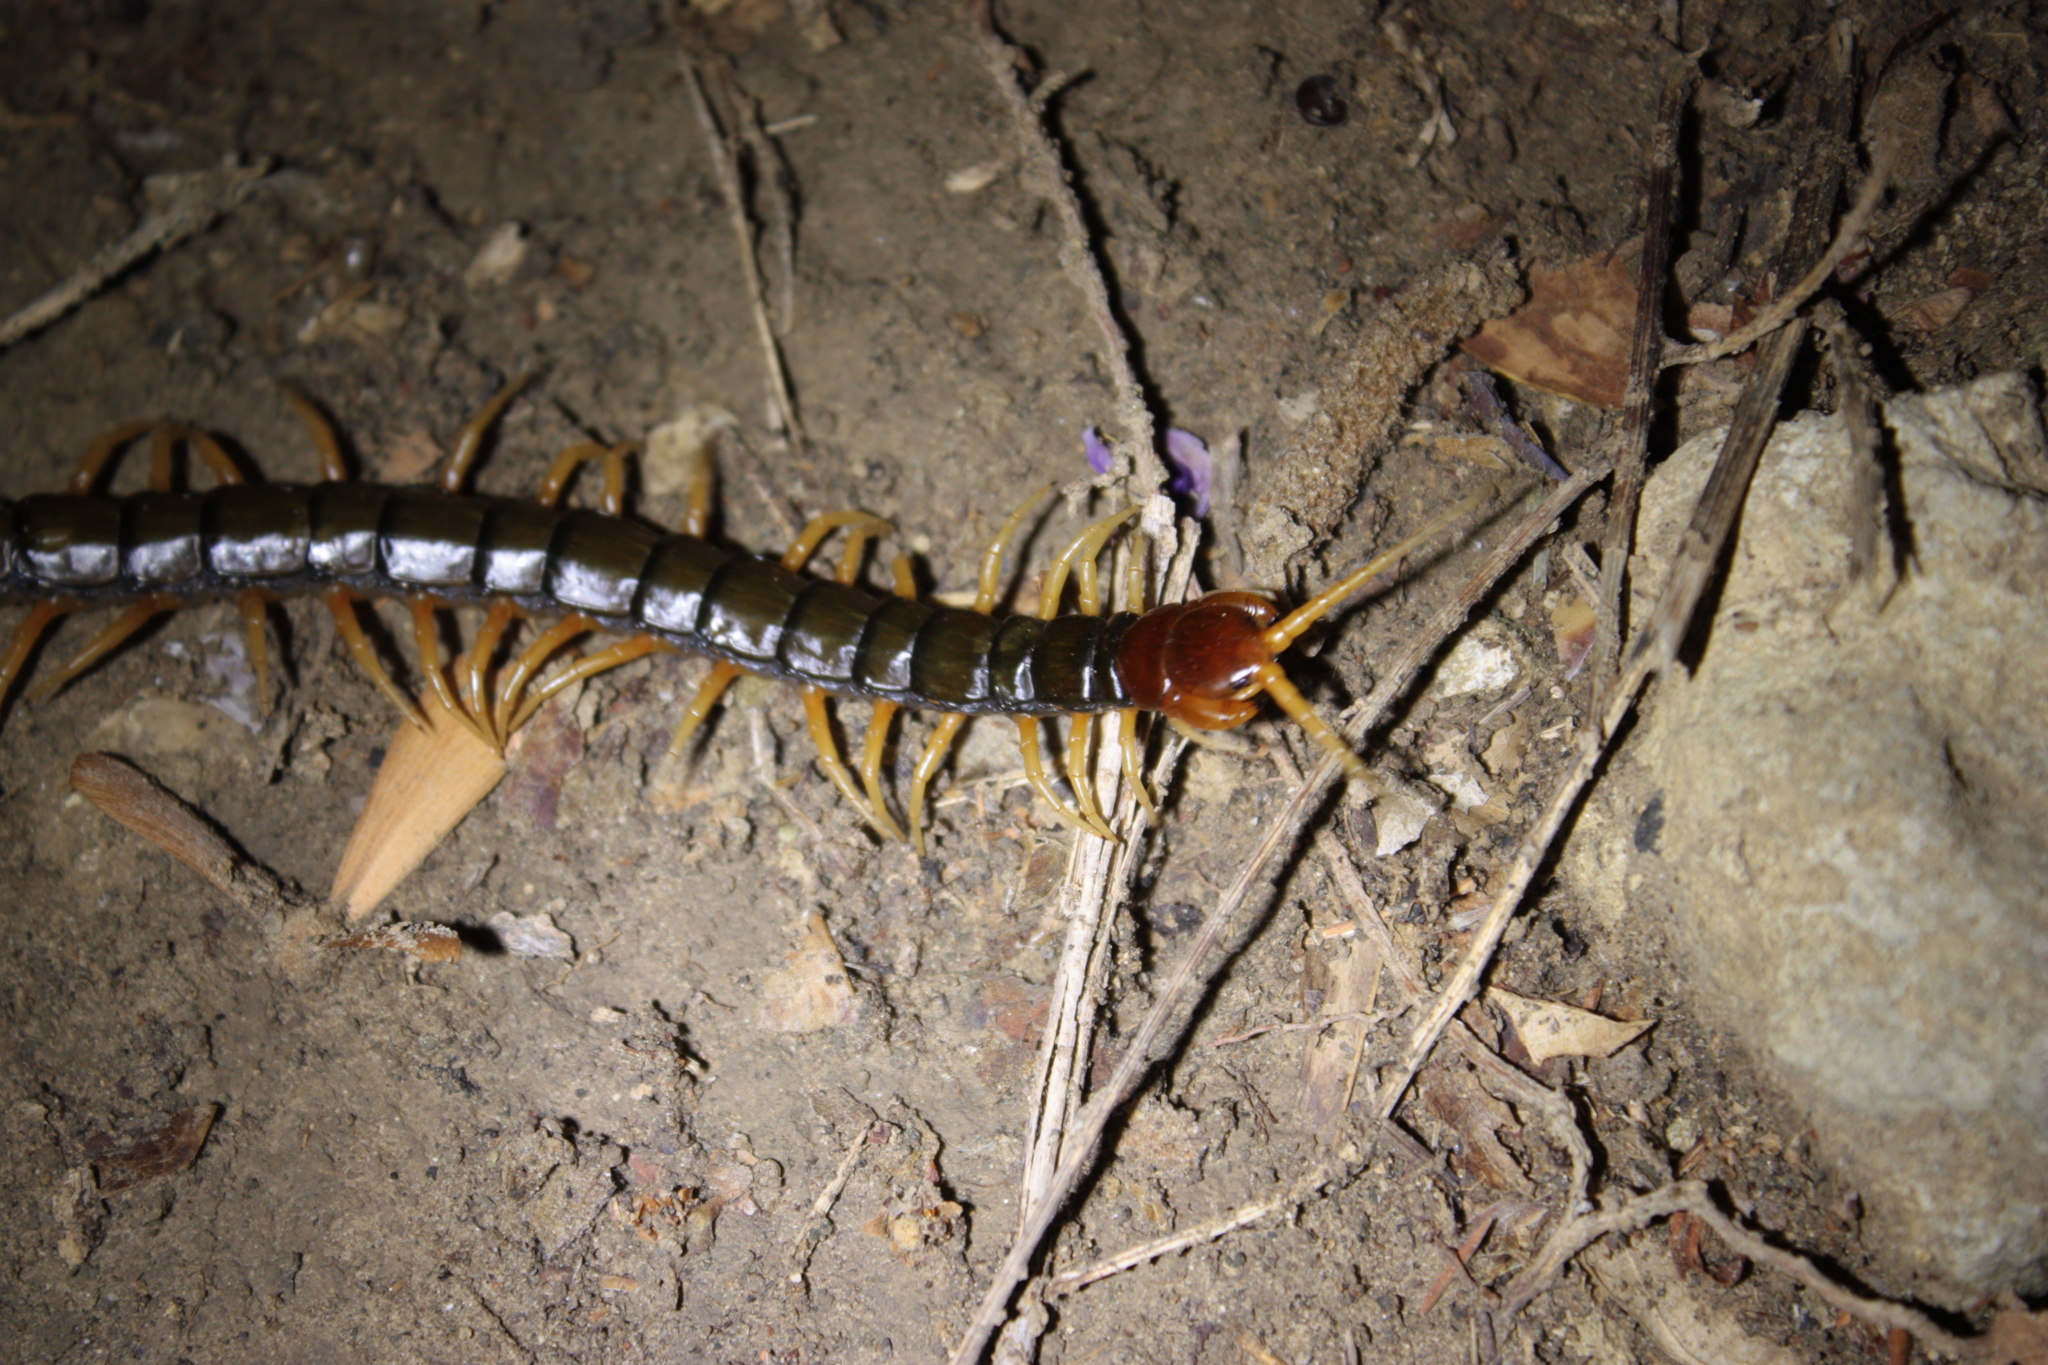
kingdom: Animalia
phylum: Arthropoda
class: Chilopoda
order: Scolopendromorpha
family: Scolopendridae
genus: Scolopendra
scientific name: Scolopendra mutilans
